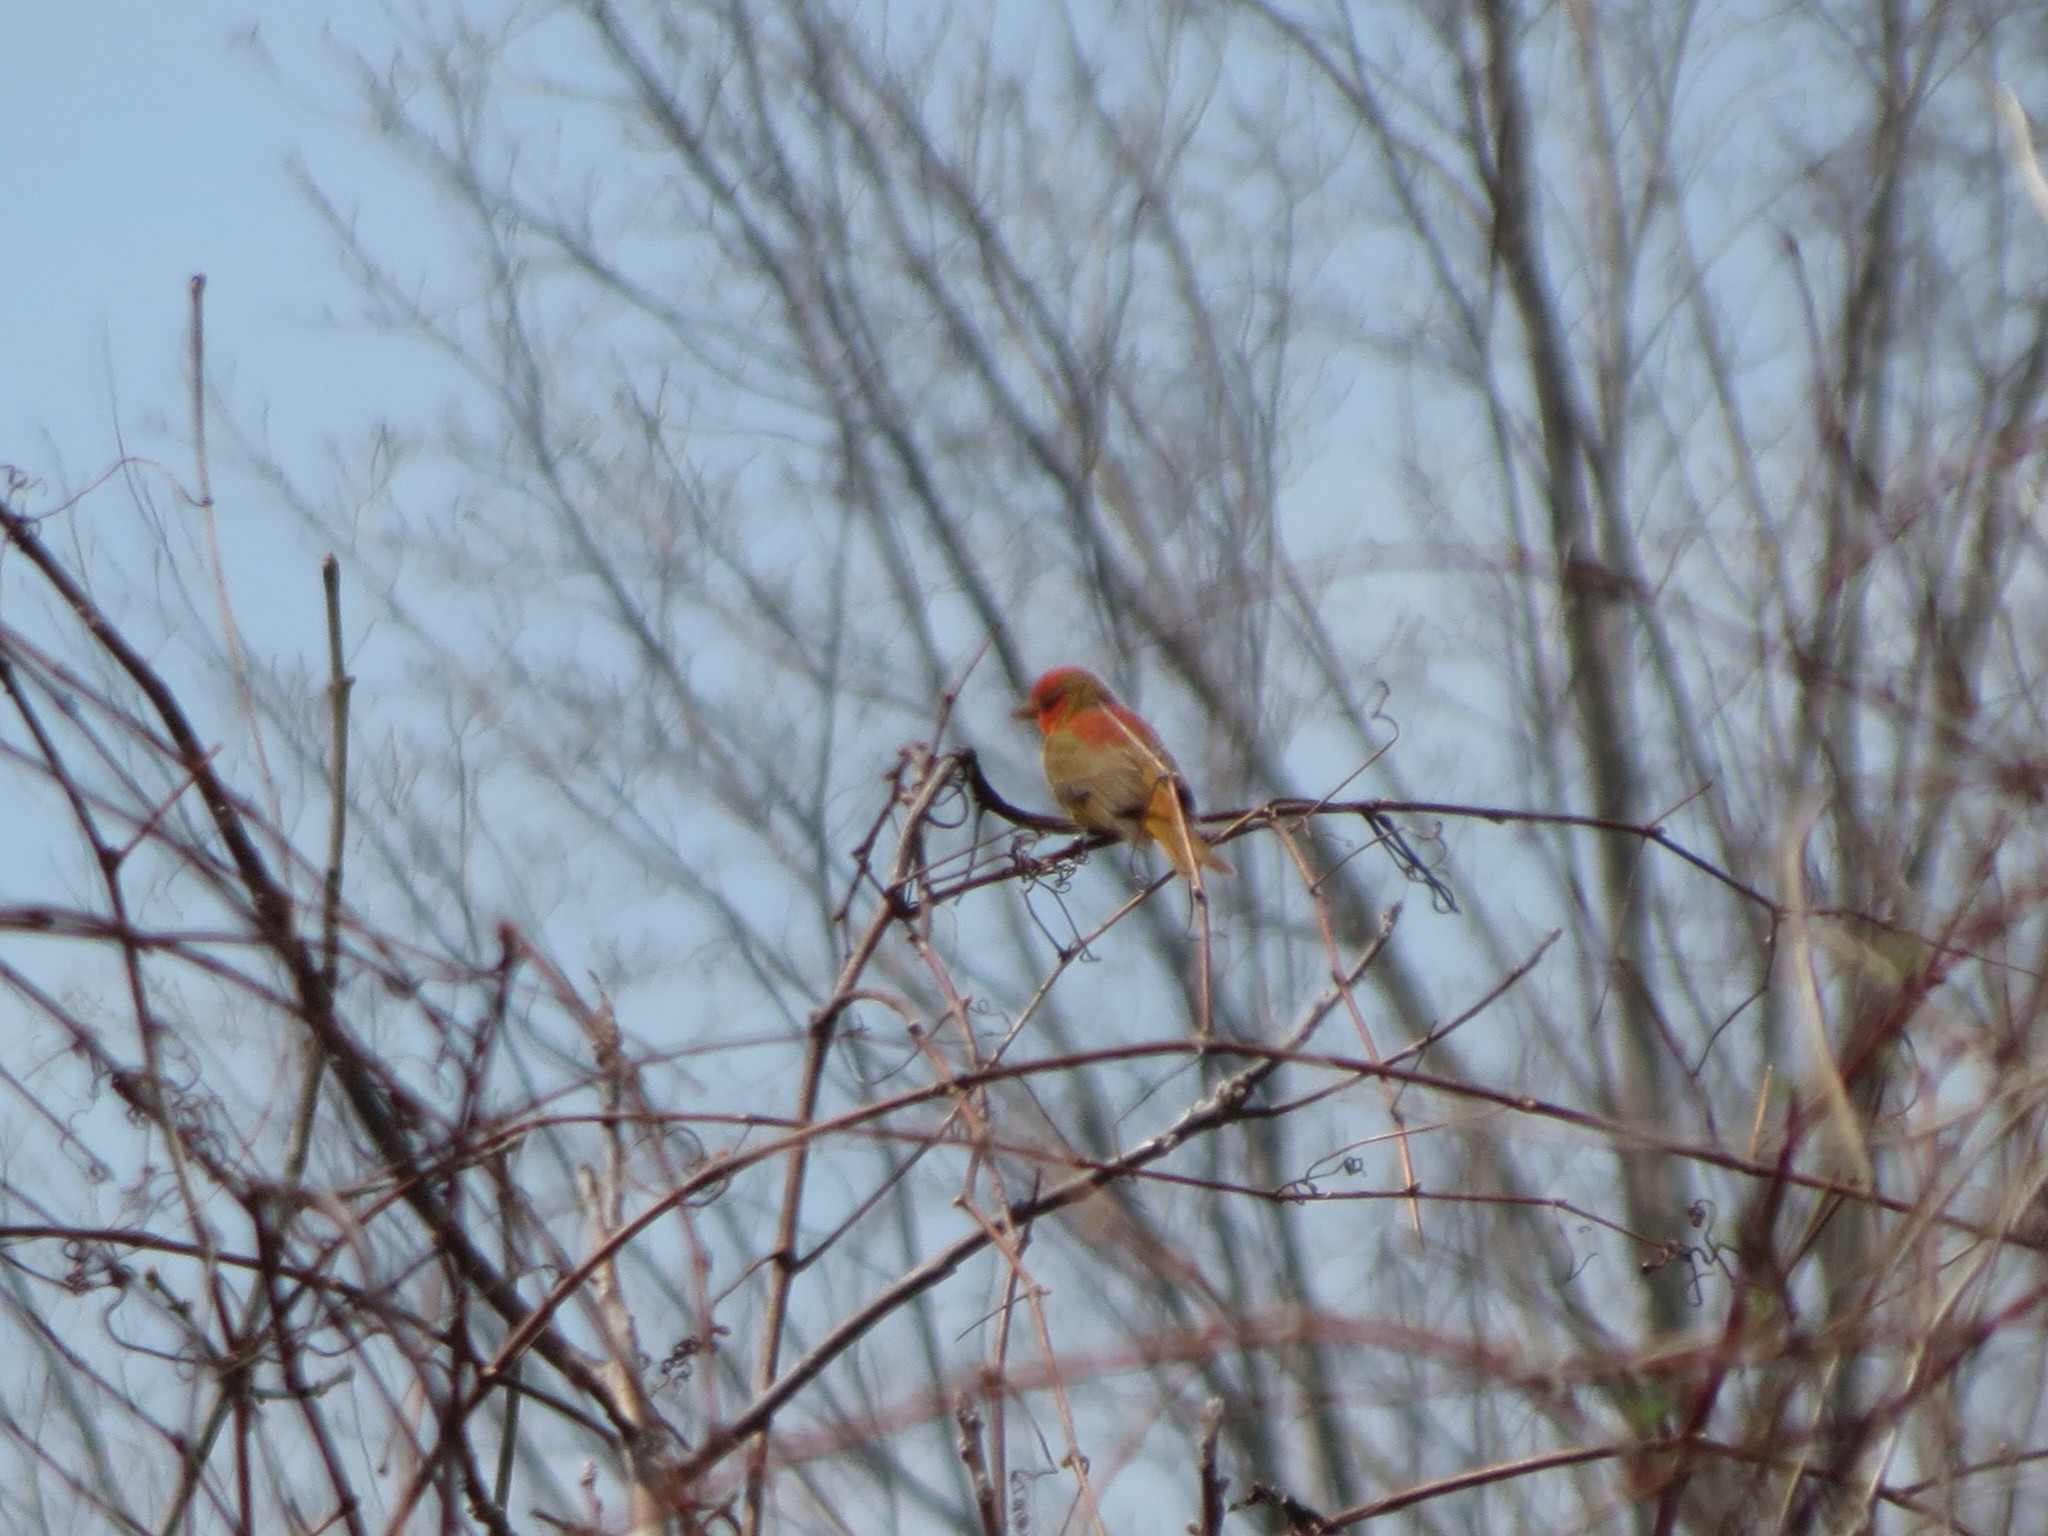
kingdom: Animalia
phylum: Chordata
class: Aves
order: Passeriformes
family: Cardinalidae
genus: Piranga
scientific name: Piranga rubra
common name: Summer tanager
